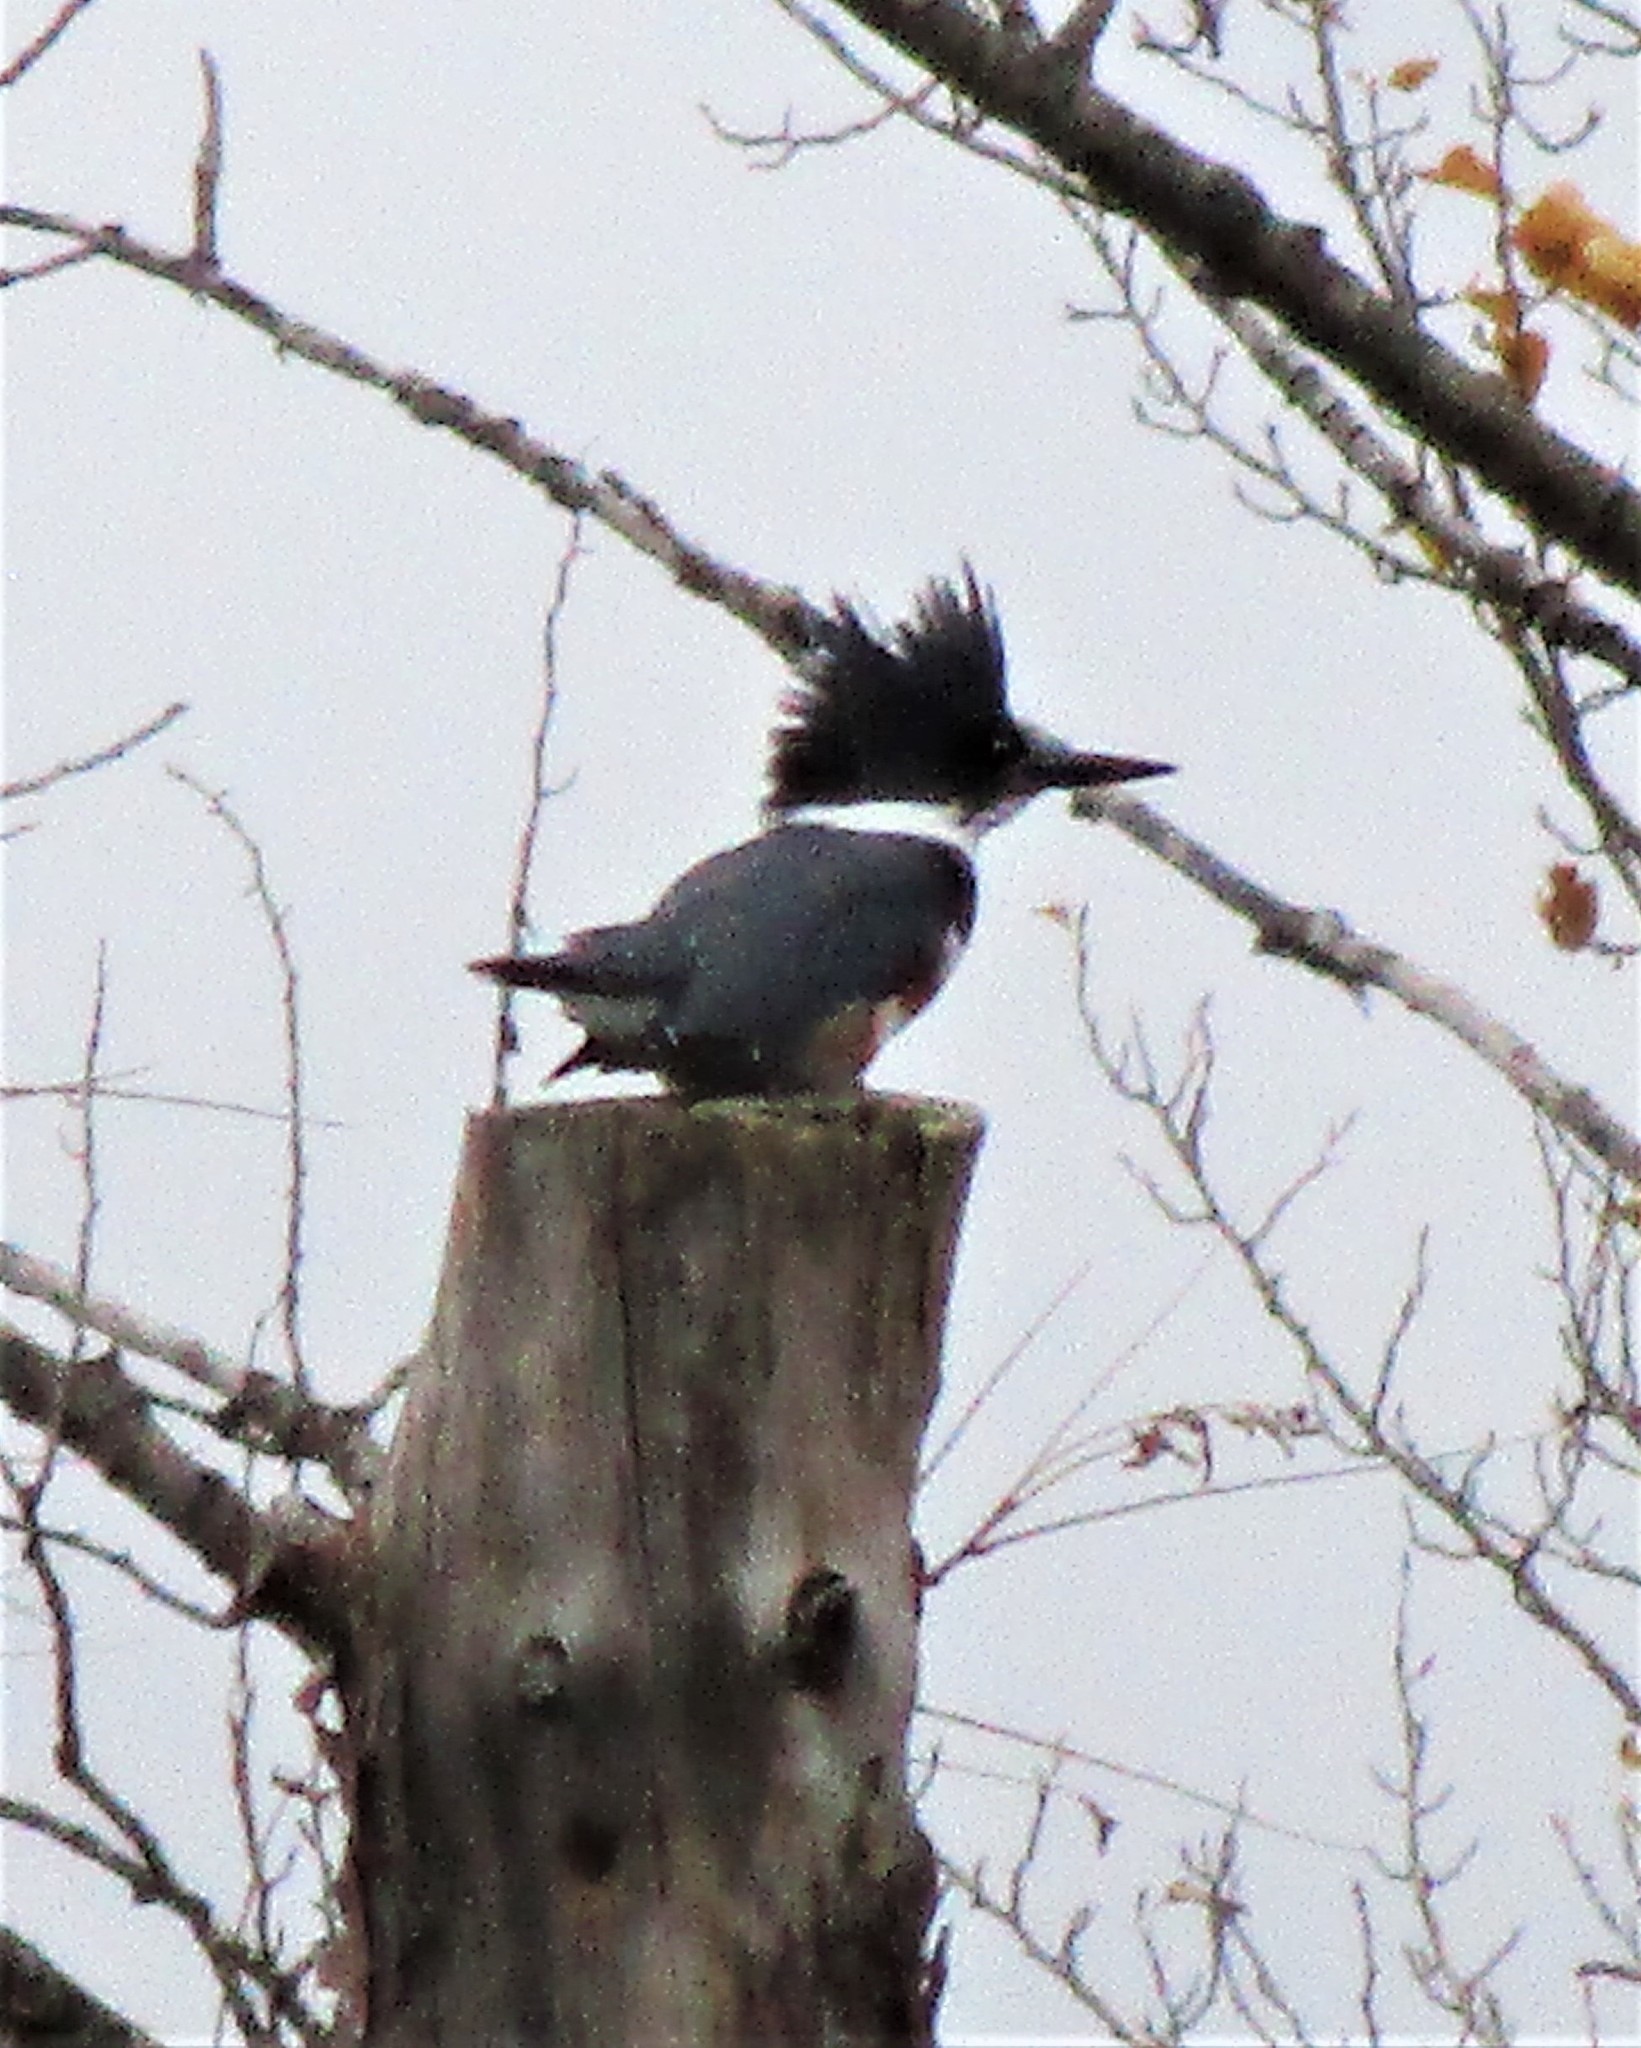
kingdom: Animalia
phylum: Chordata
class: Aves
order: Coraciiformes
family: Alcedinidae
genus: Megaceryle
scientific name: Megaceryle alcyon
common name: Belted kingfisher
